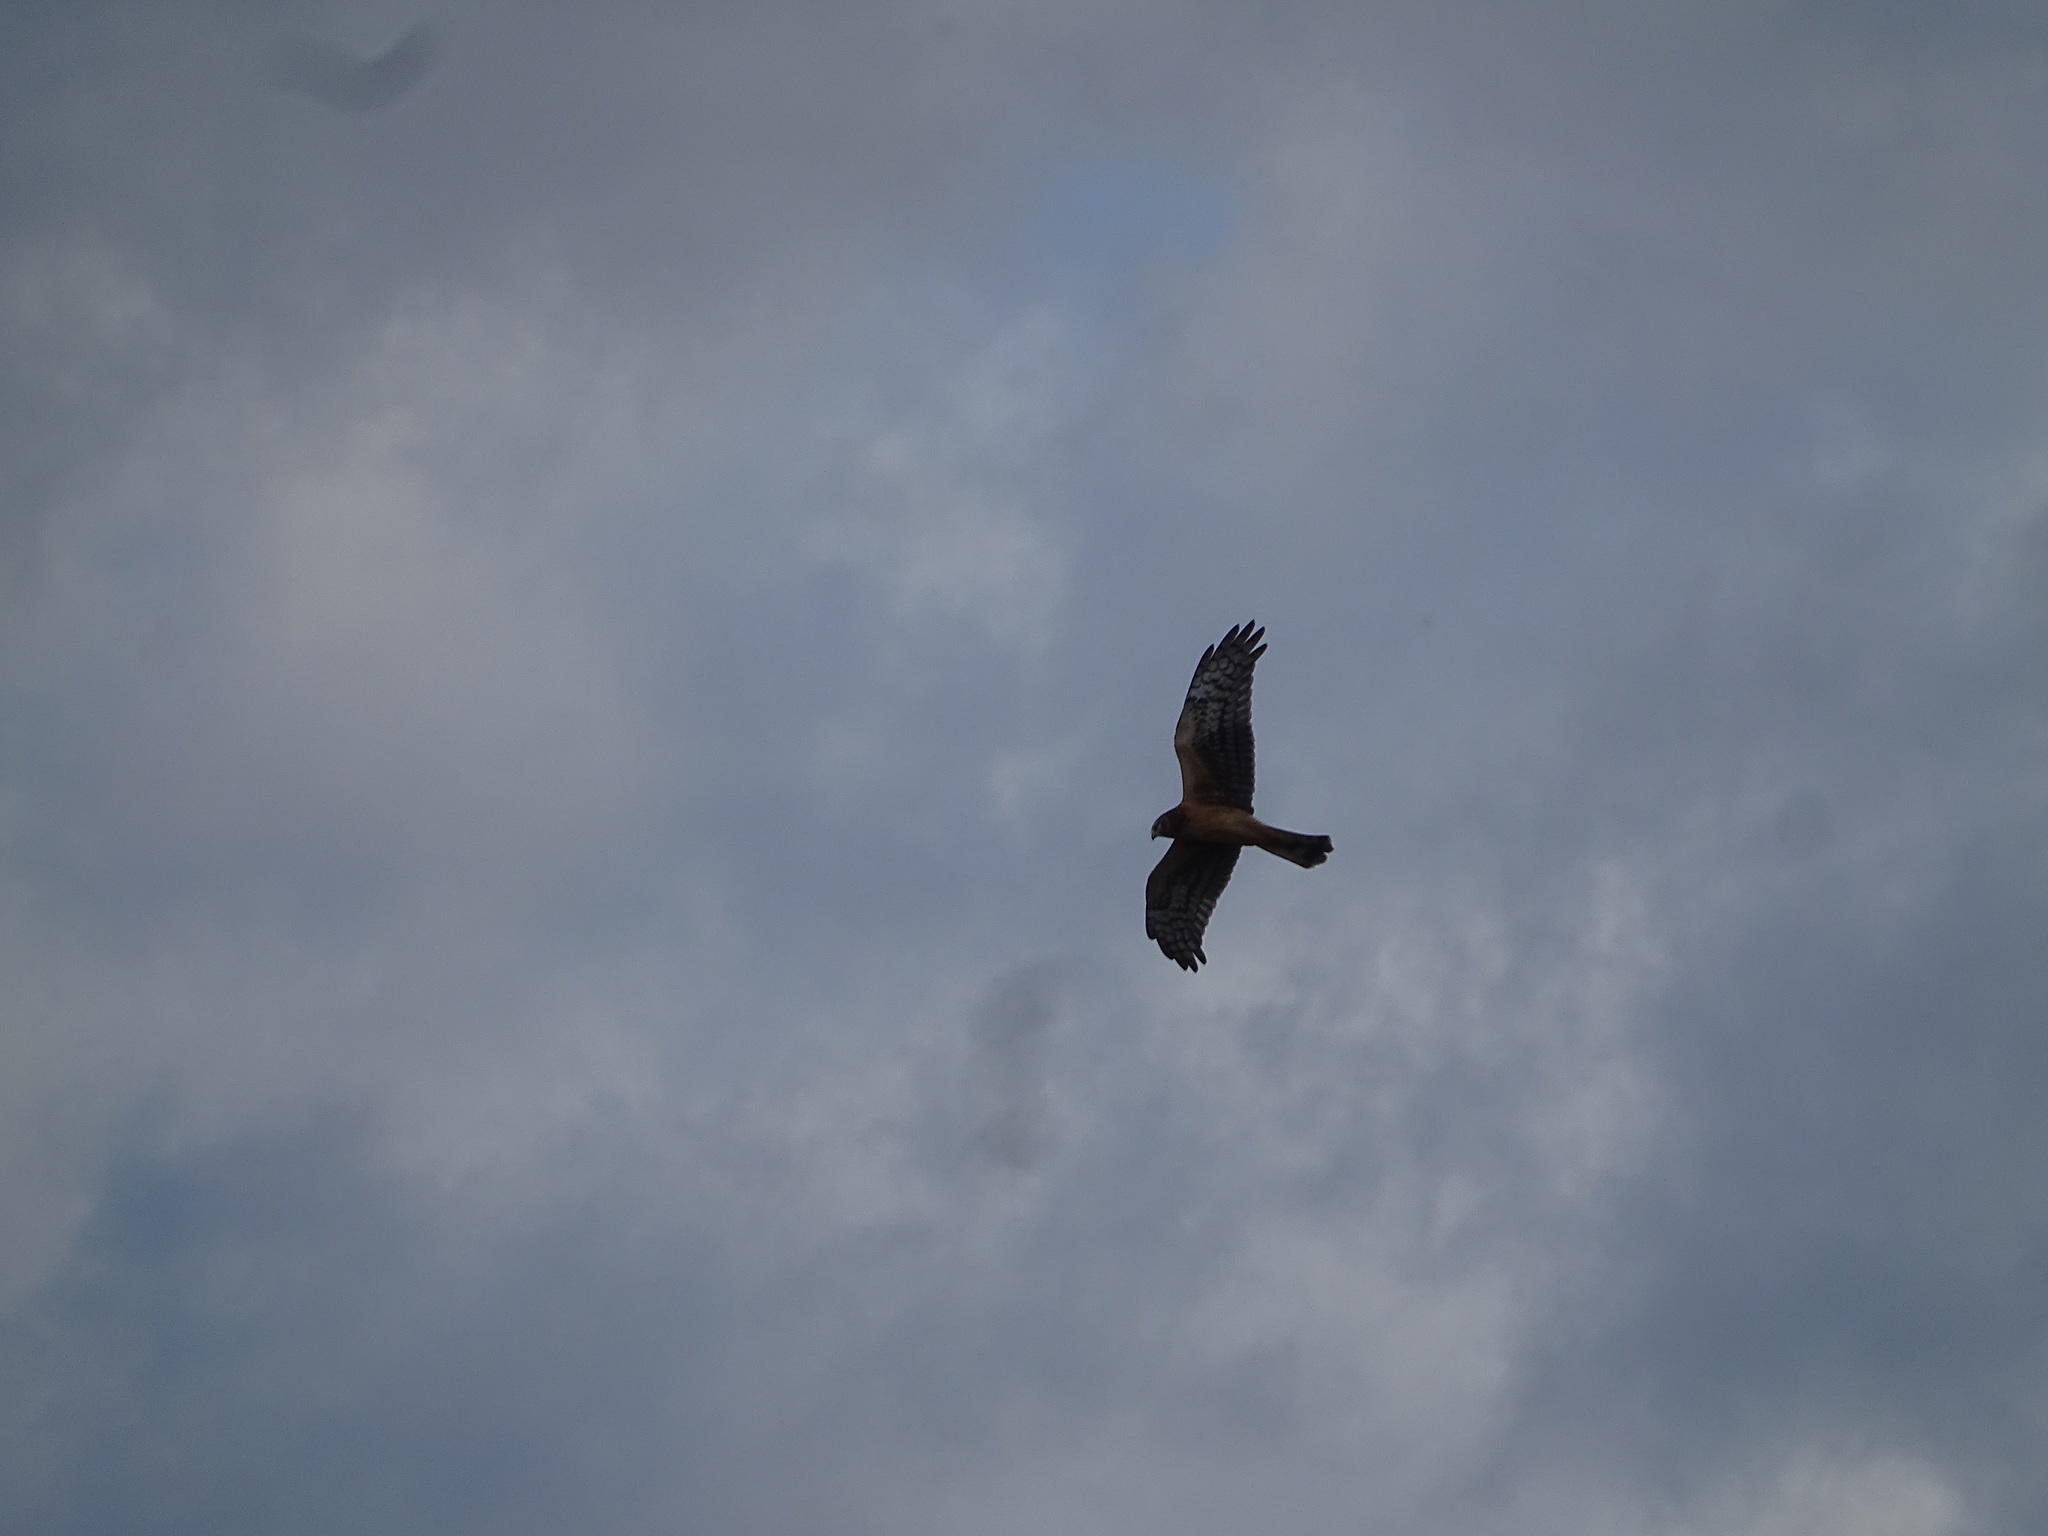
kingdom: Animalia
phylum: Chordata
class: Aves
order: Accipitriformes
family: Accipitridae
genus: Circus
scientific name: Circus cyaneus
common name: Hen harrier
